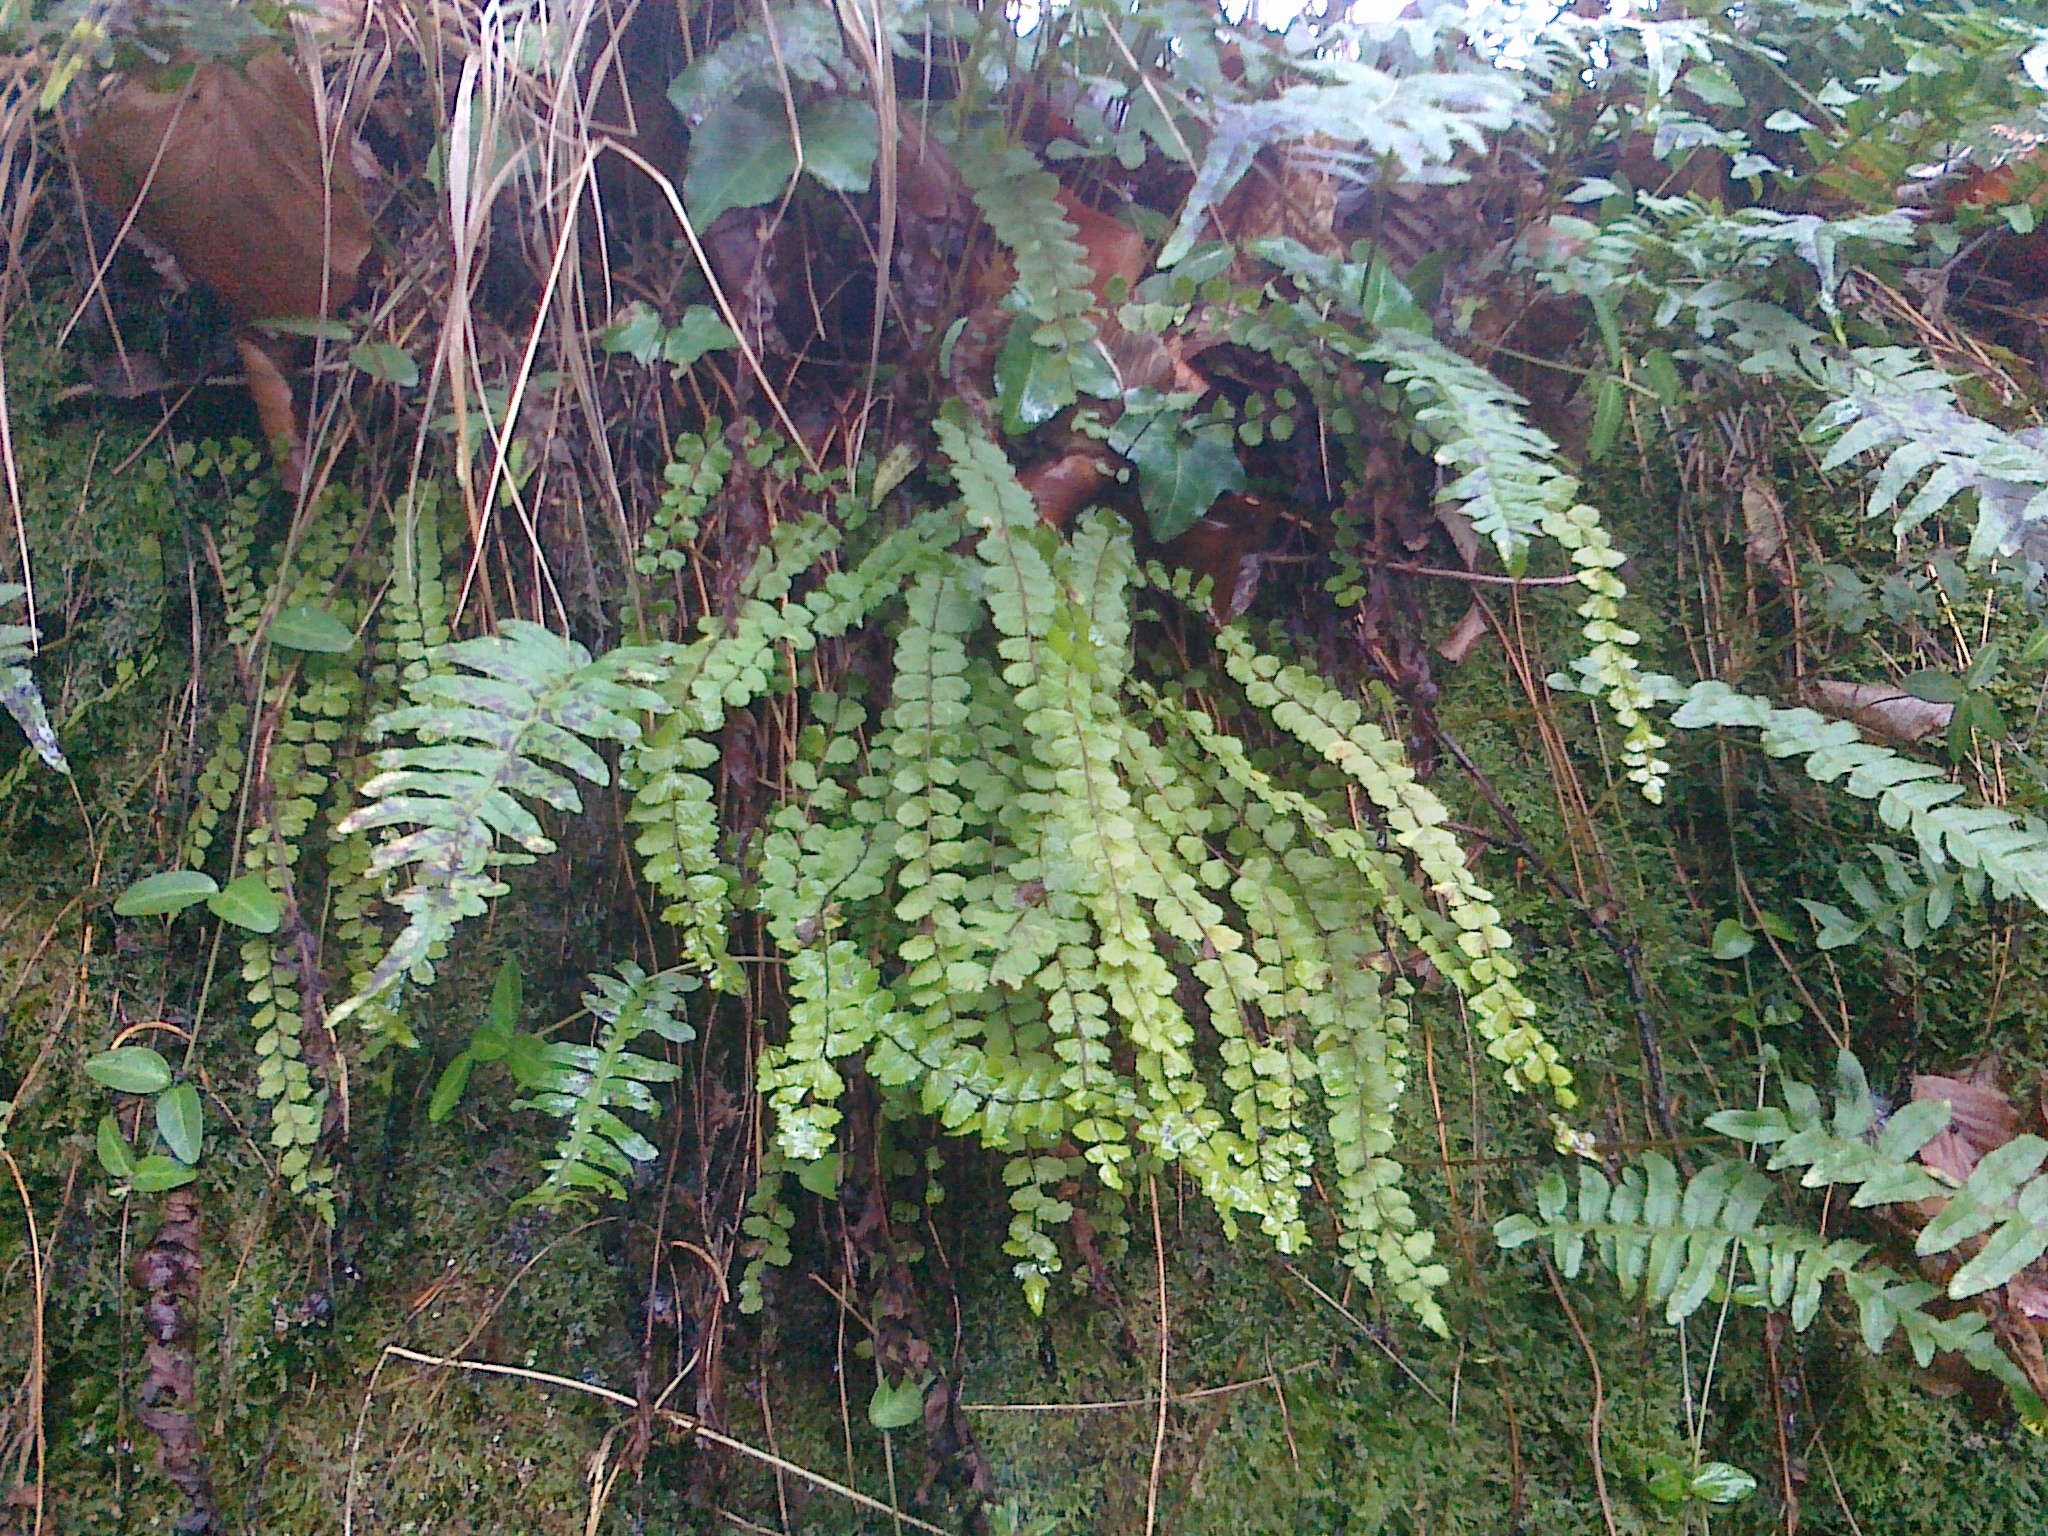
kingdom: Plantae
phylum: Tracheophyta
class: Polypodiopsida
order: Polypodiales
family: Aspleniaceae
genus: Asplenium
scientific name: Asplenium trichomanes
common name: Maidenhair spleenwort
